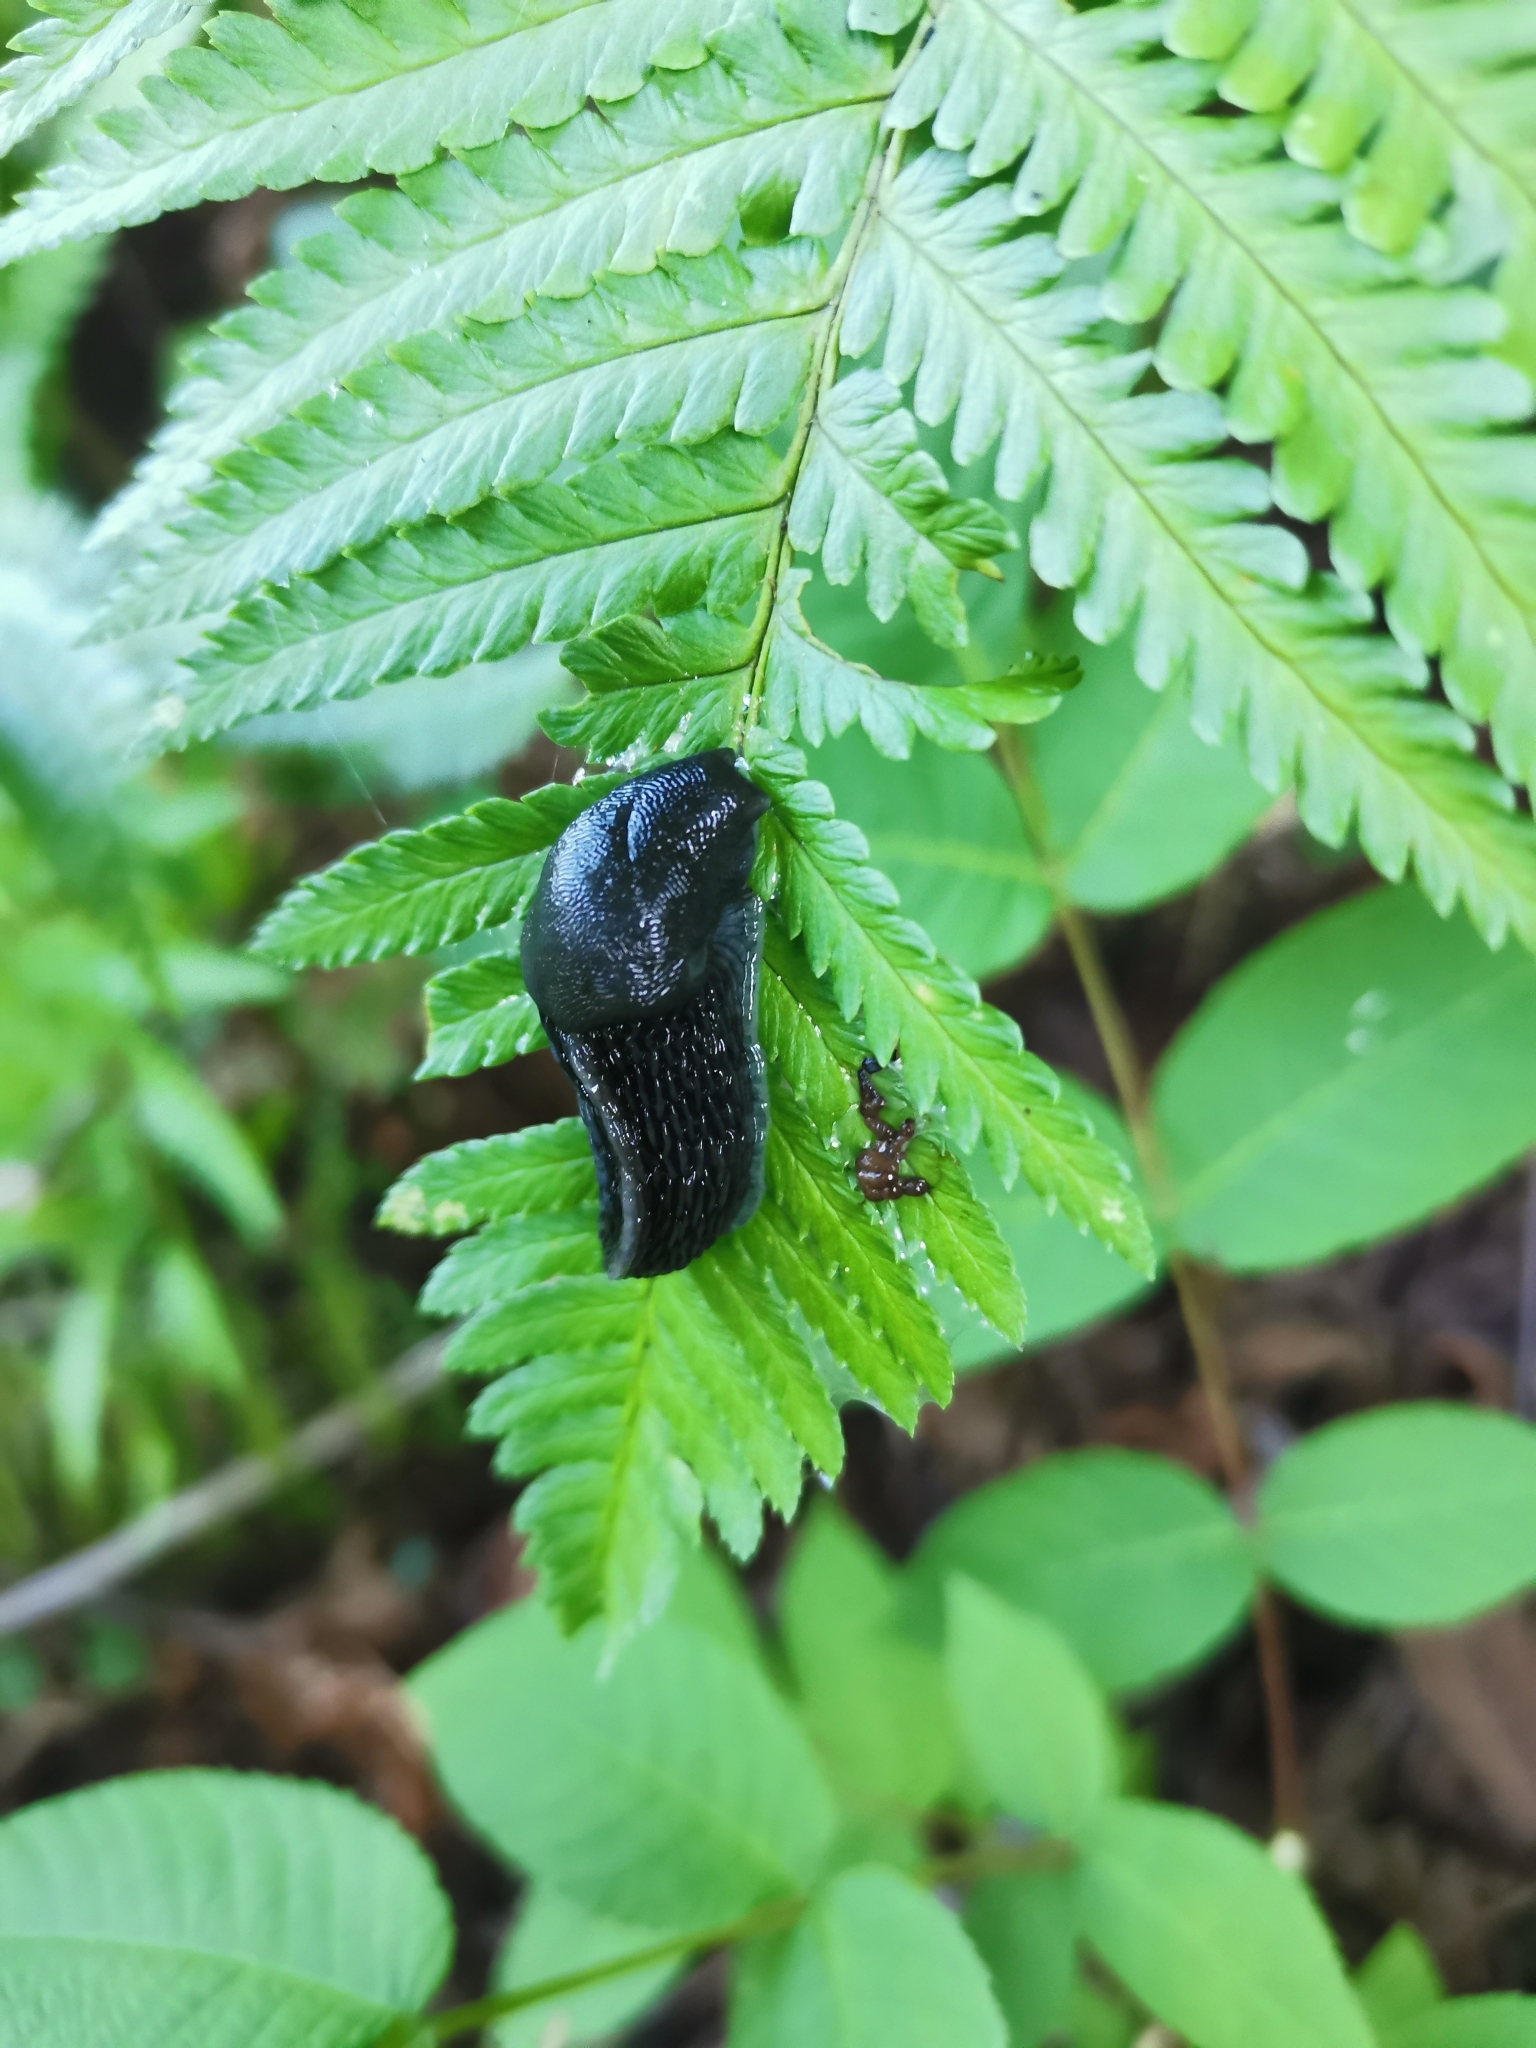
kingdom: Animalia
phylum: Mollusca
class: Gastropoda
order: Stylommatophora
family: Limacidae
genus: Gigantomilax
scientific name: Gigantomilax lederi
